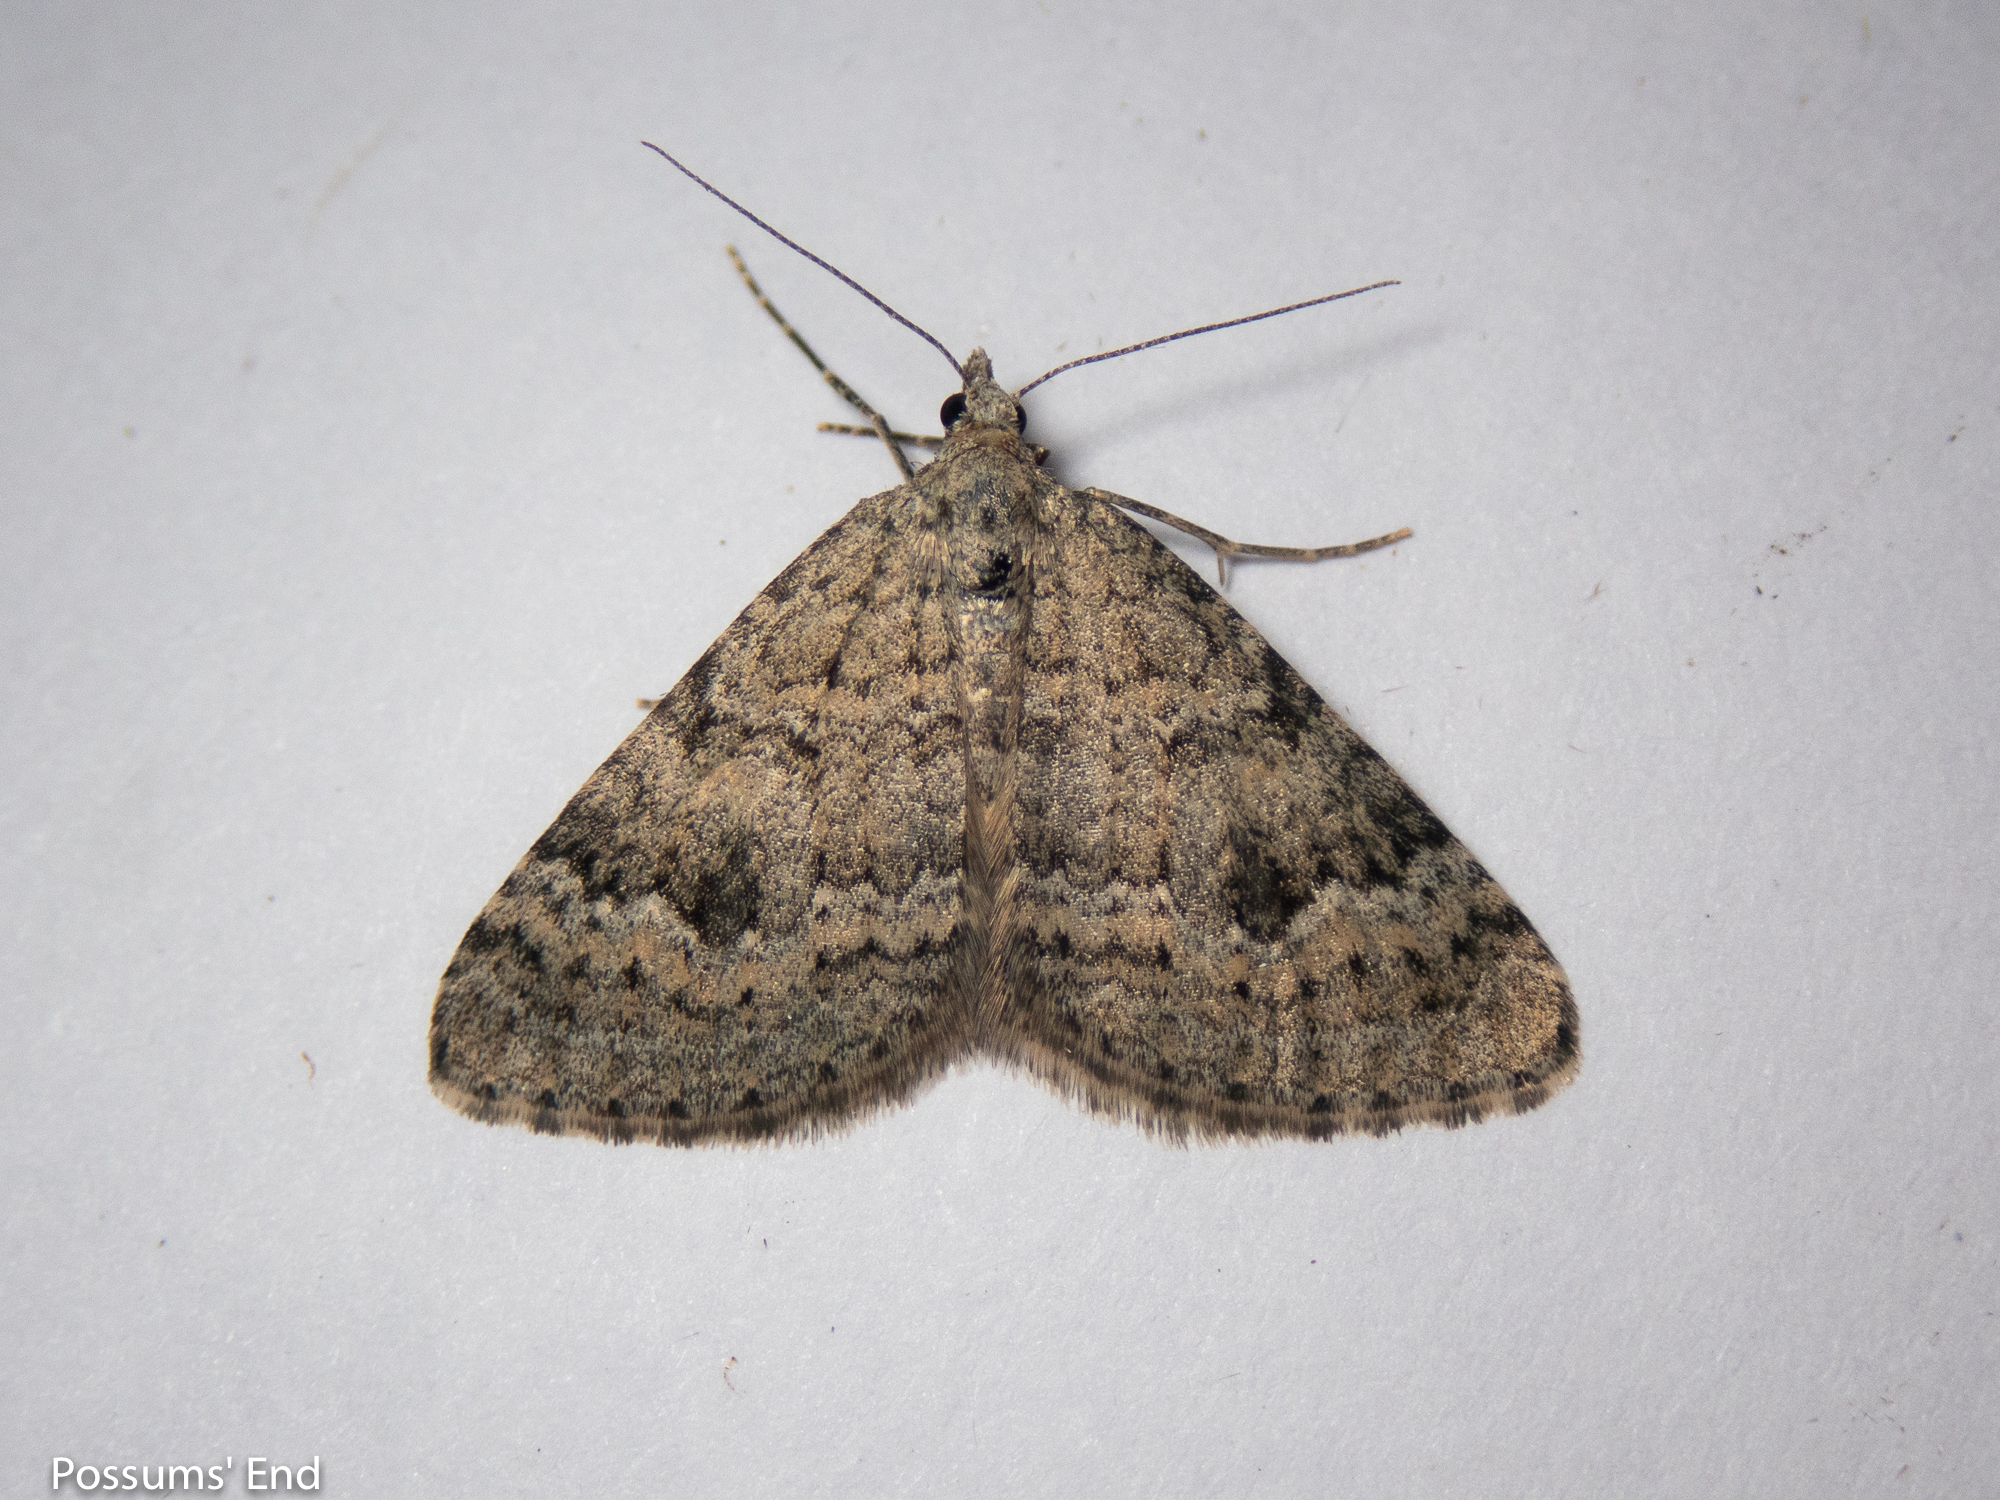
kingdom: Animalia
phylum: Arthropoda
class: Insecta
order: Lepidoptera
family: Geometridae
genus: Helastia
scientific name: Helastia corcularia
